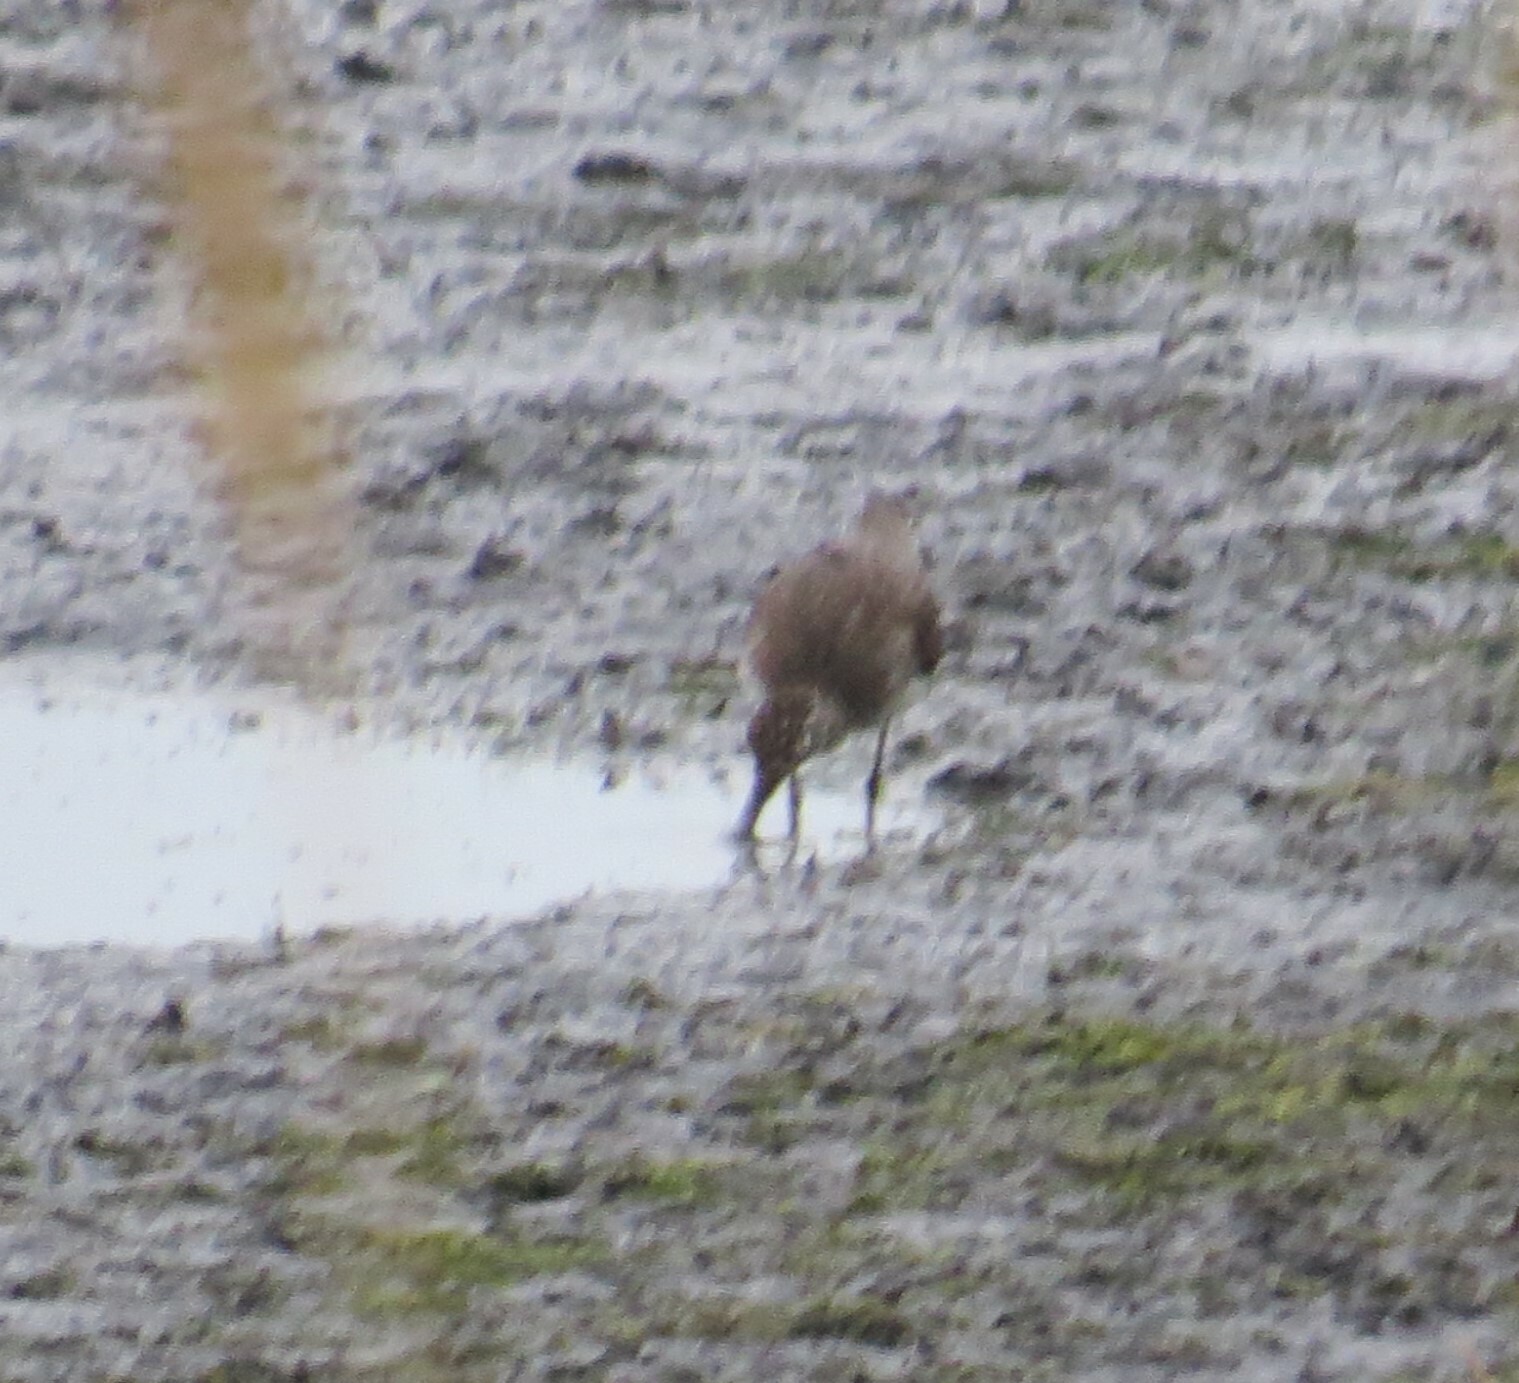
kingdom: Animalia
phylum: Chordata
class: Aves
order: Charadriiformes
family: Scolopacidae
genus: Tringa
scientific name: Tringa solitaria
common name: Solitary sandpiper
